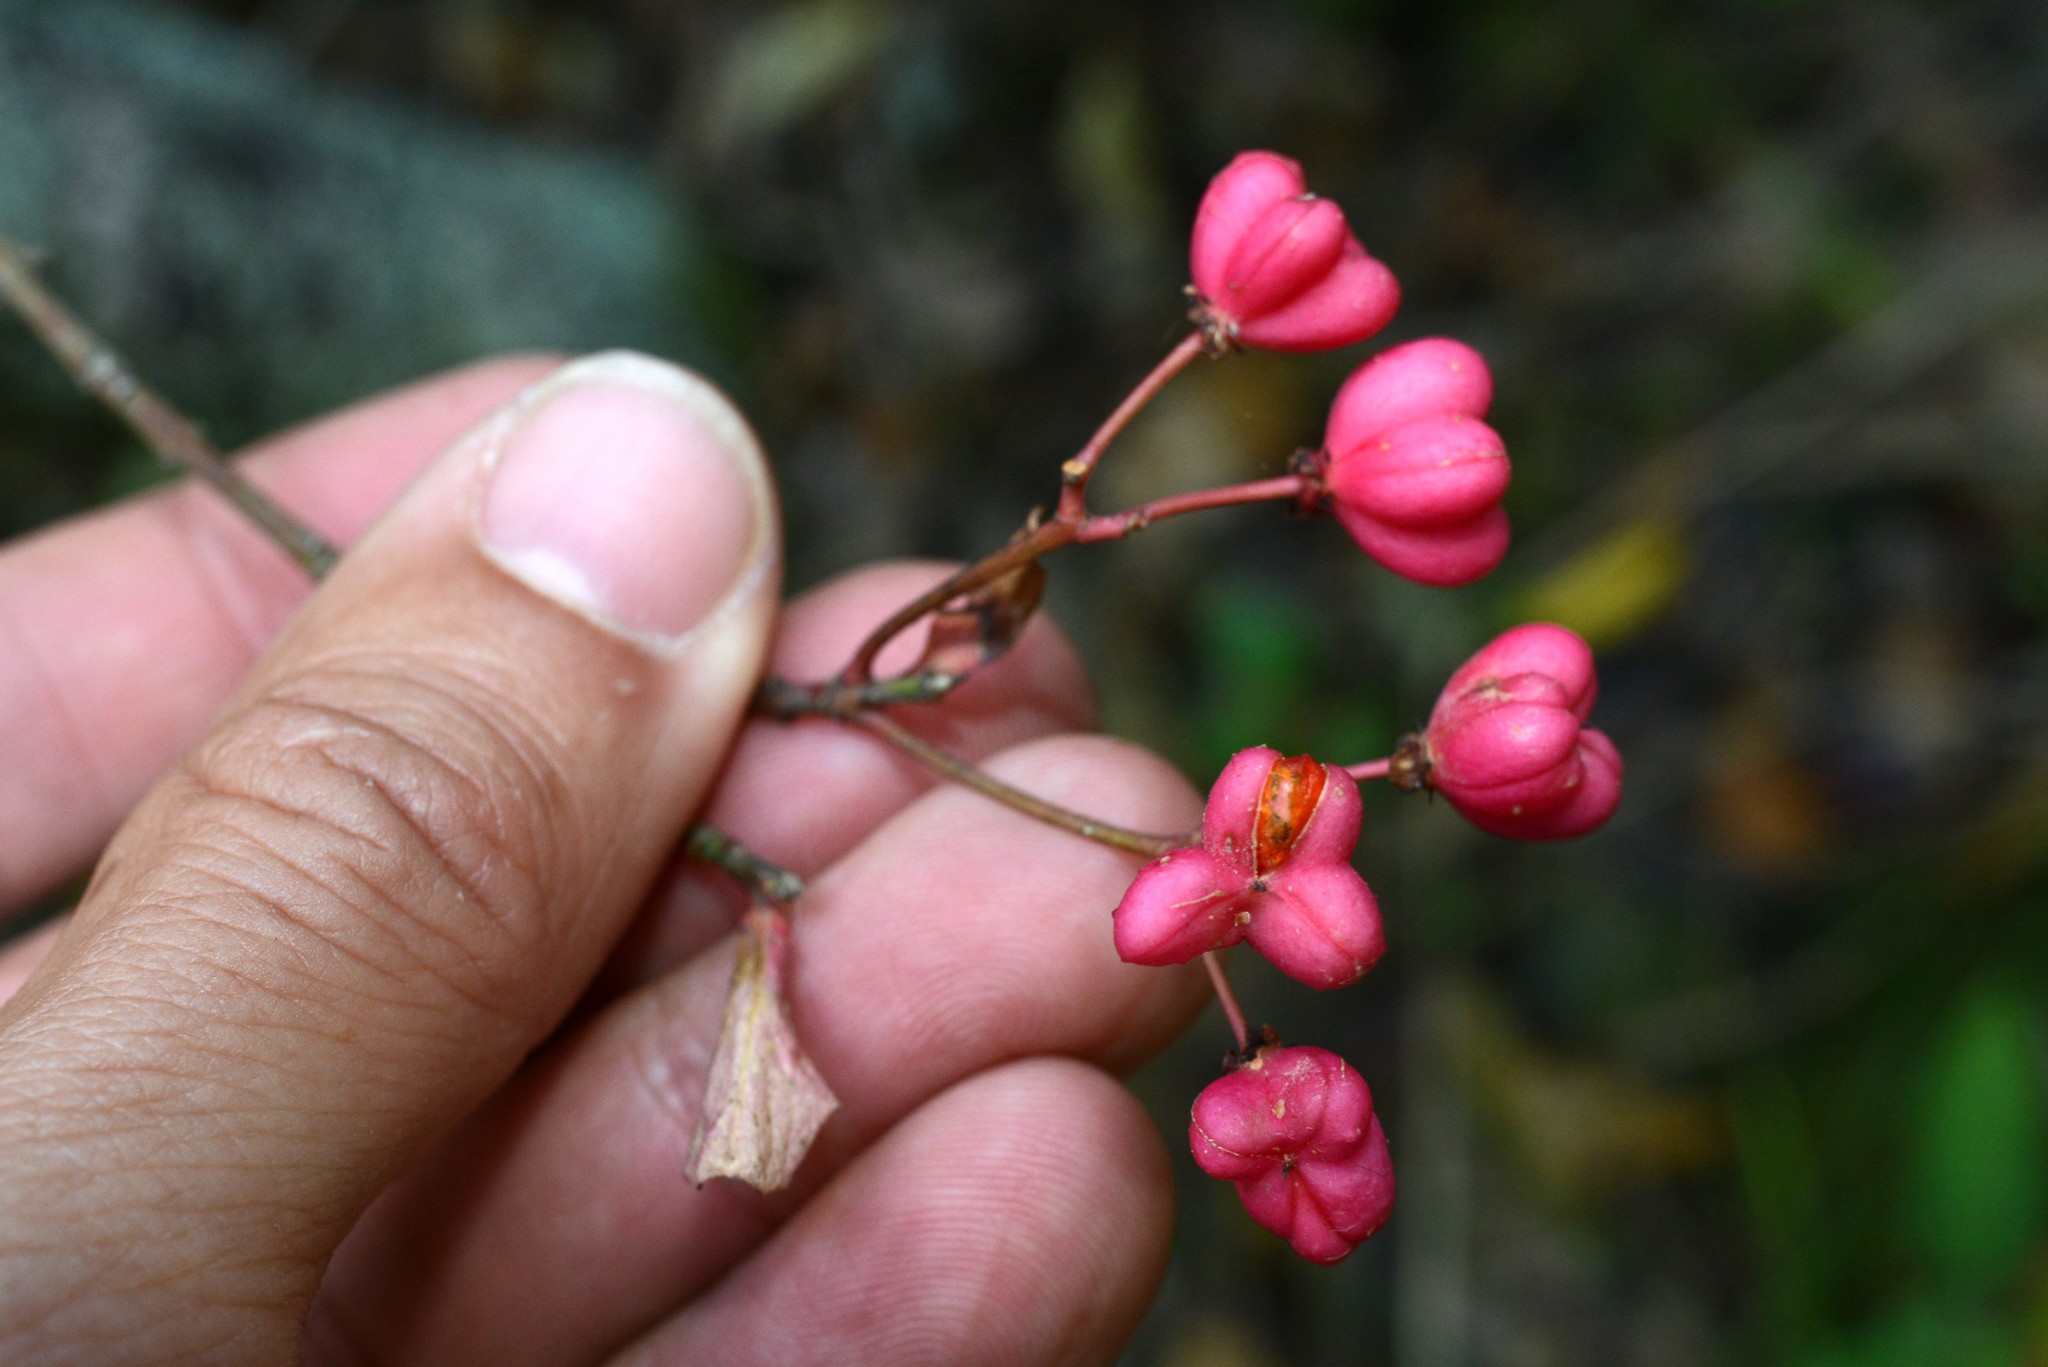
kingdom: Plantae
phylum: Tracheophyta
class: Magnoliopsida
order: Celastrales
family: Celastraceae
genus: Euonymus
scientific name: Euonymus europaeus
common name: Spindle
